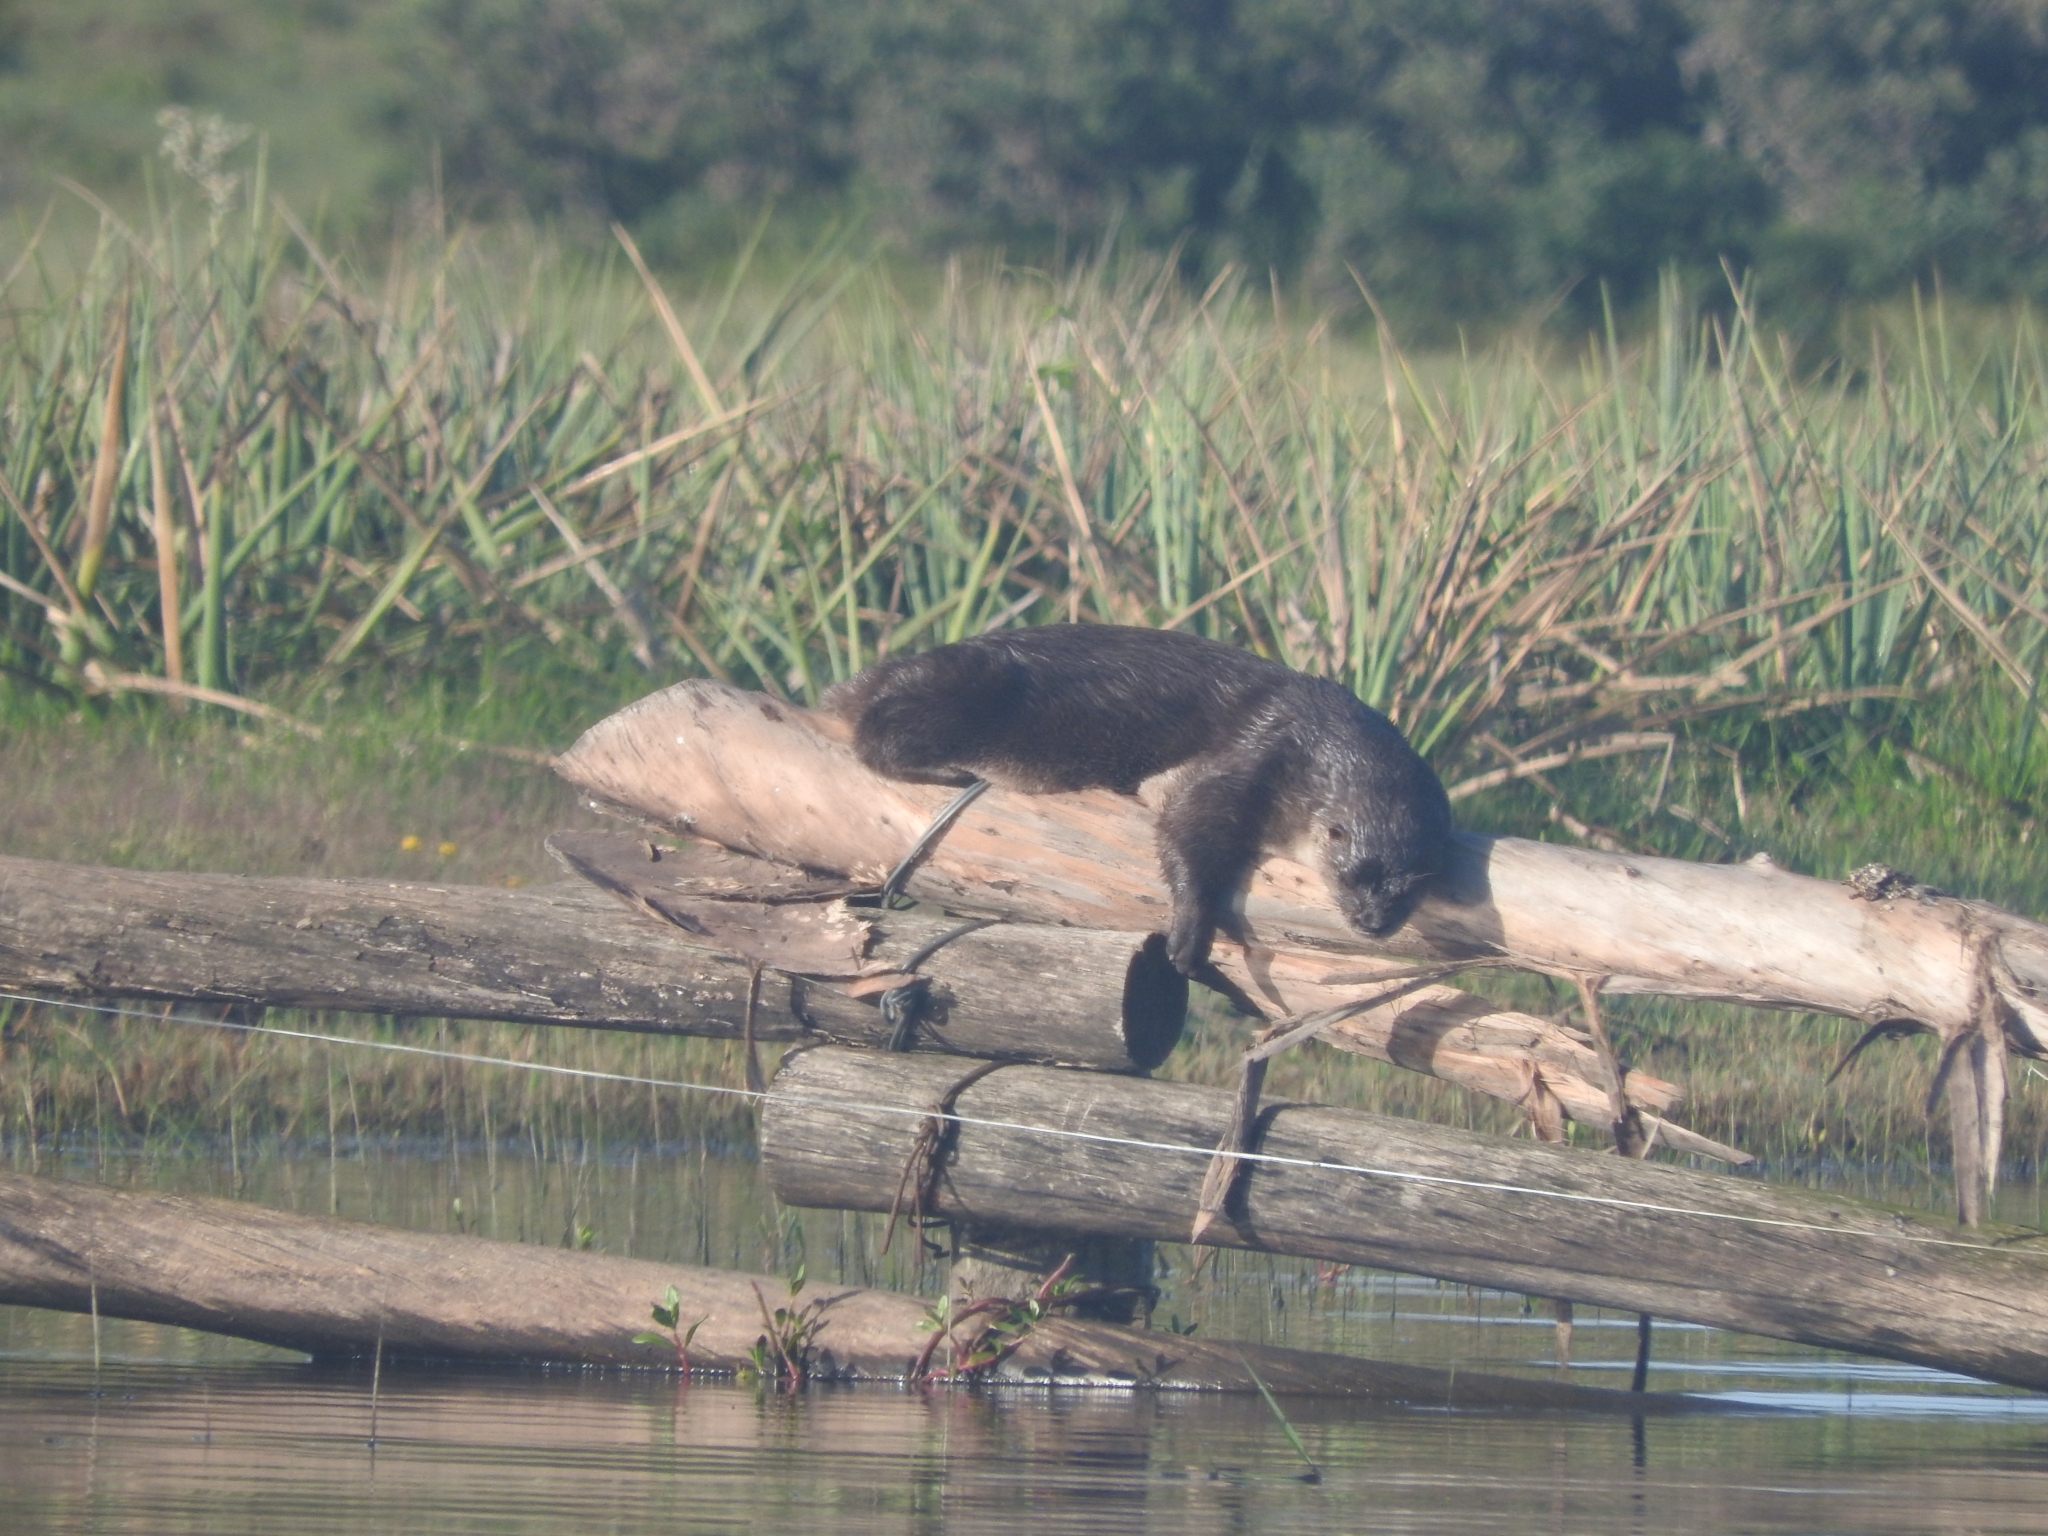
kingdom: Animalia
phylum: Chordata
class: Mammalia
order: Carnivora
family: Mustelidae
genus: Lontra
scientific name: Lontra longicaudis
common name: Neotropical otter
